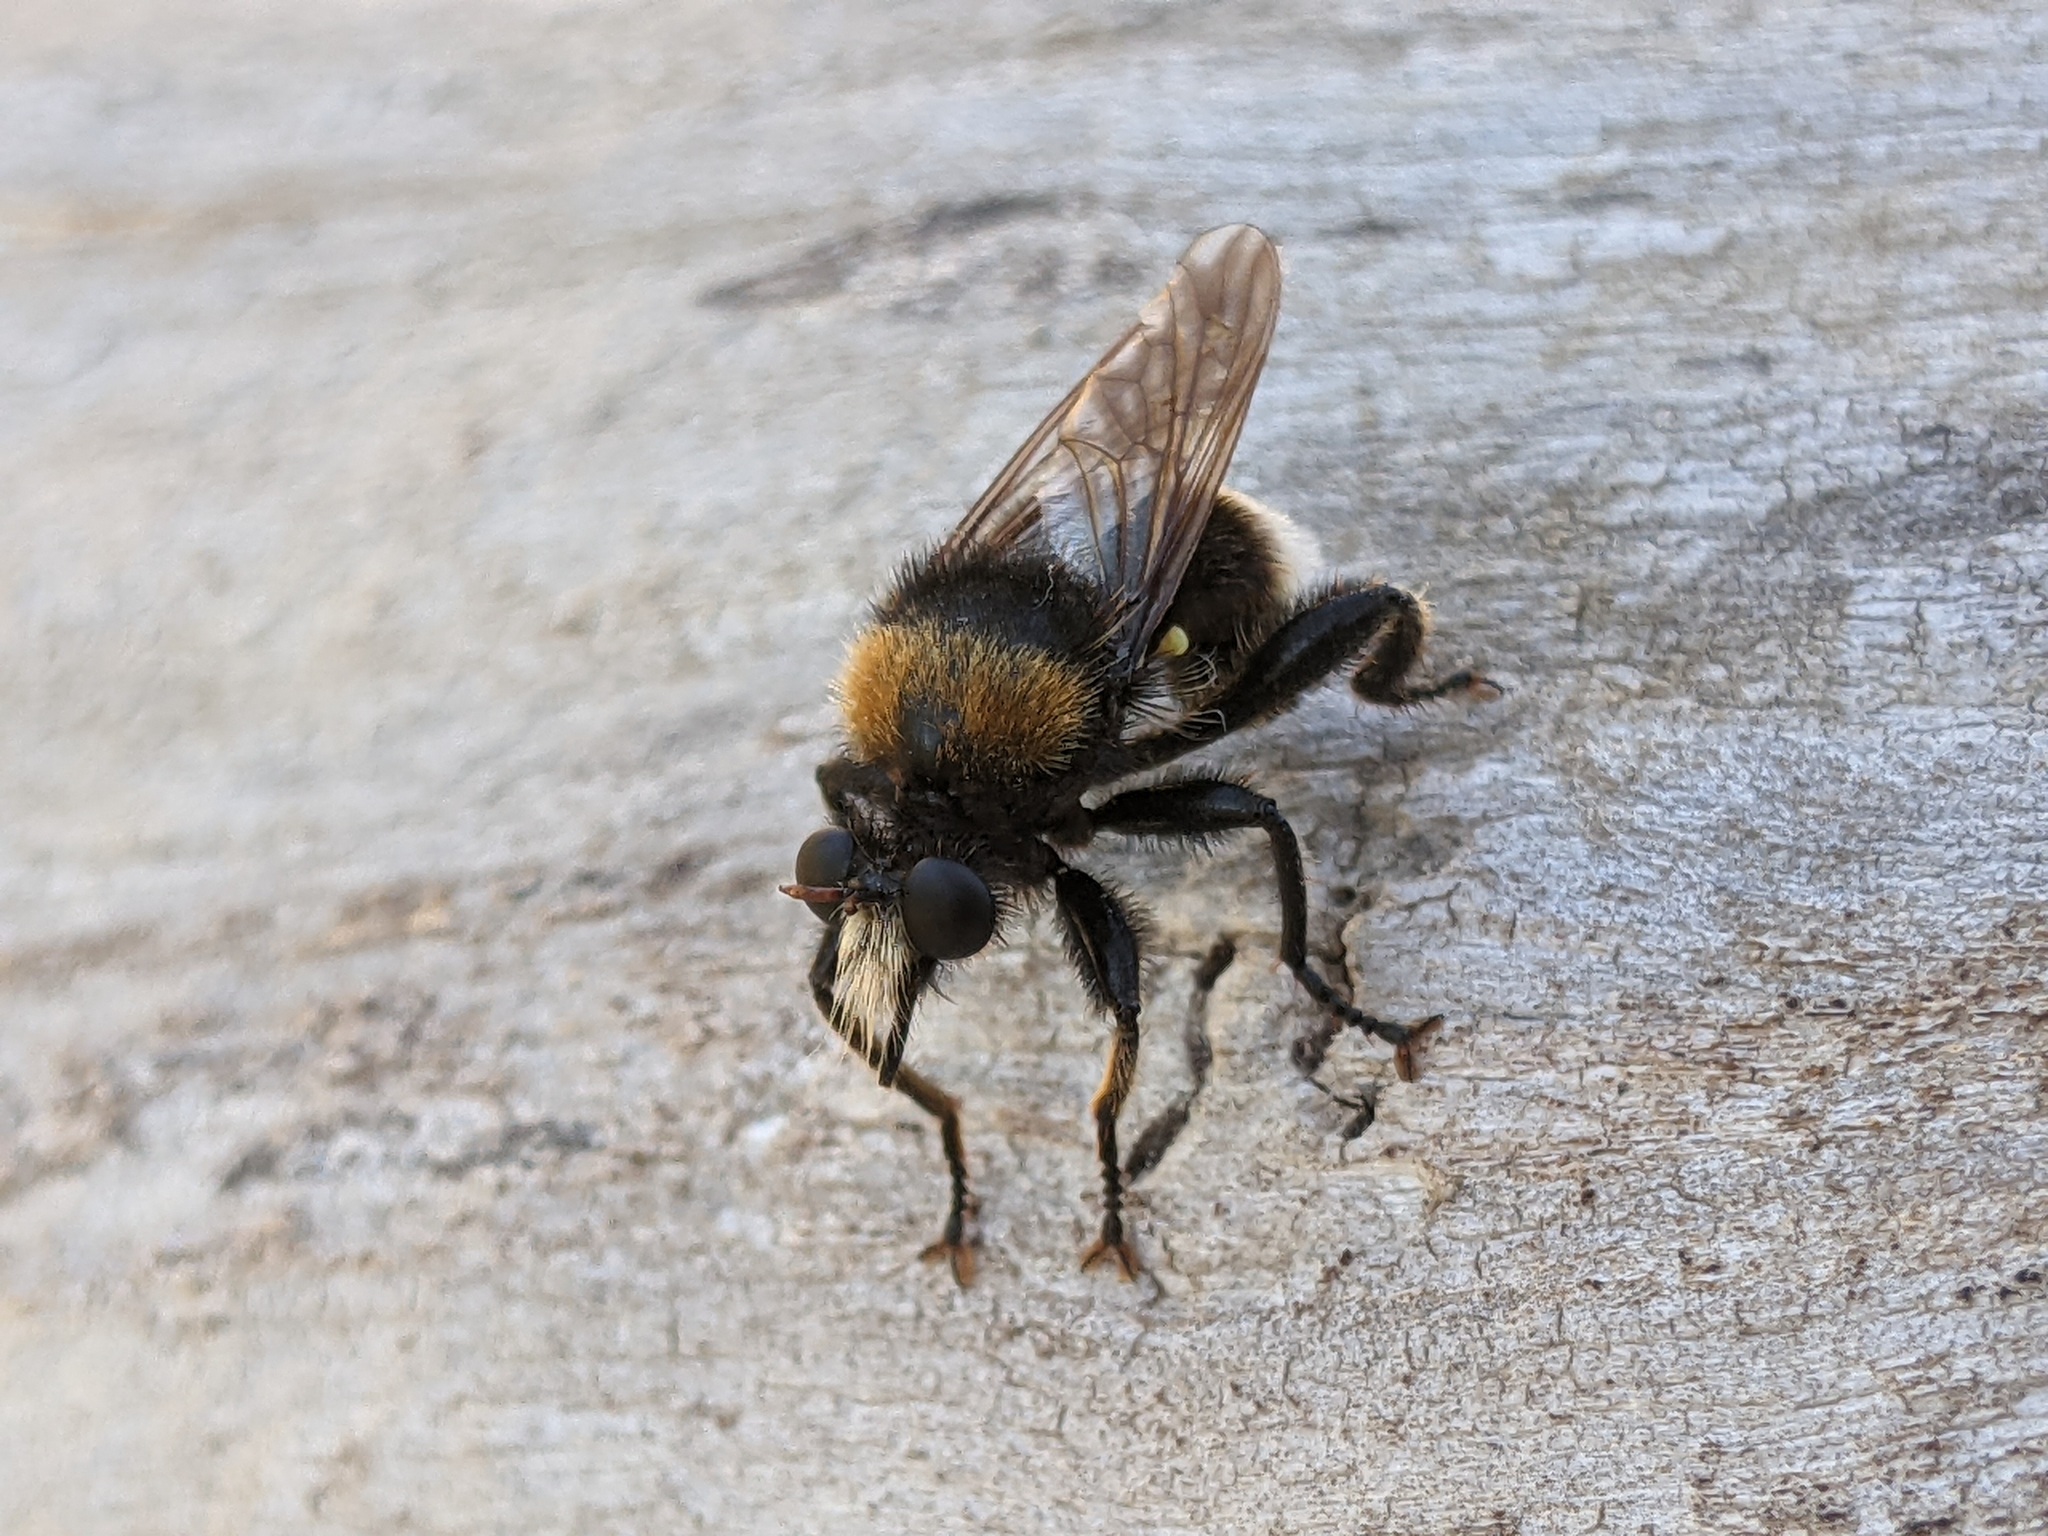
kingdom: Animalia
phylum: Arthropoda
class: Insecta
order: Diptera
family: Asilidae
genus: Laphria
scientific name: Laphria bomboides
